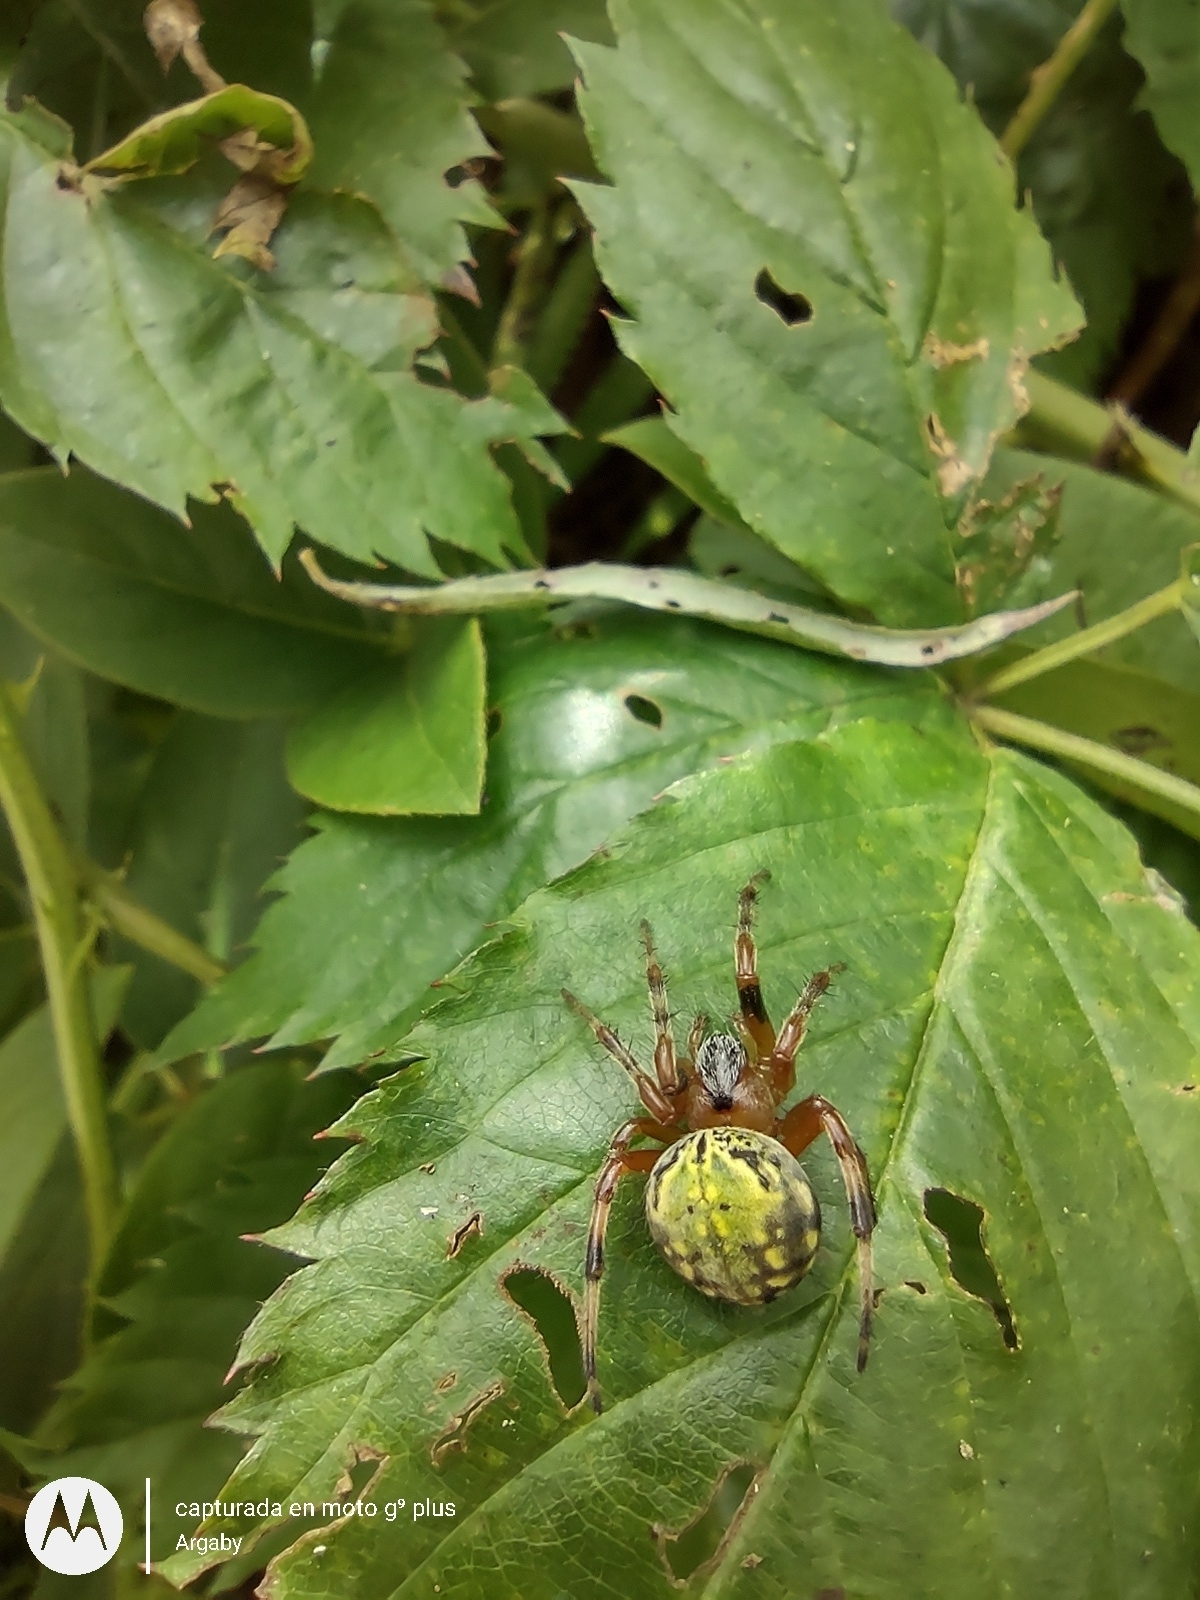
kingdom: Animalia
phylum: Arthropoda
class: Arachnida
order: Araneae
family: Araneidae
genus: Araneus
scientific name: Araneus workmani
